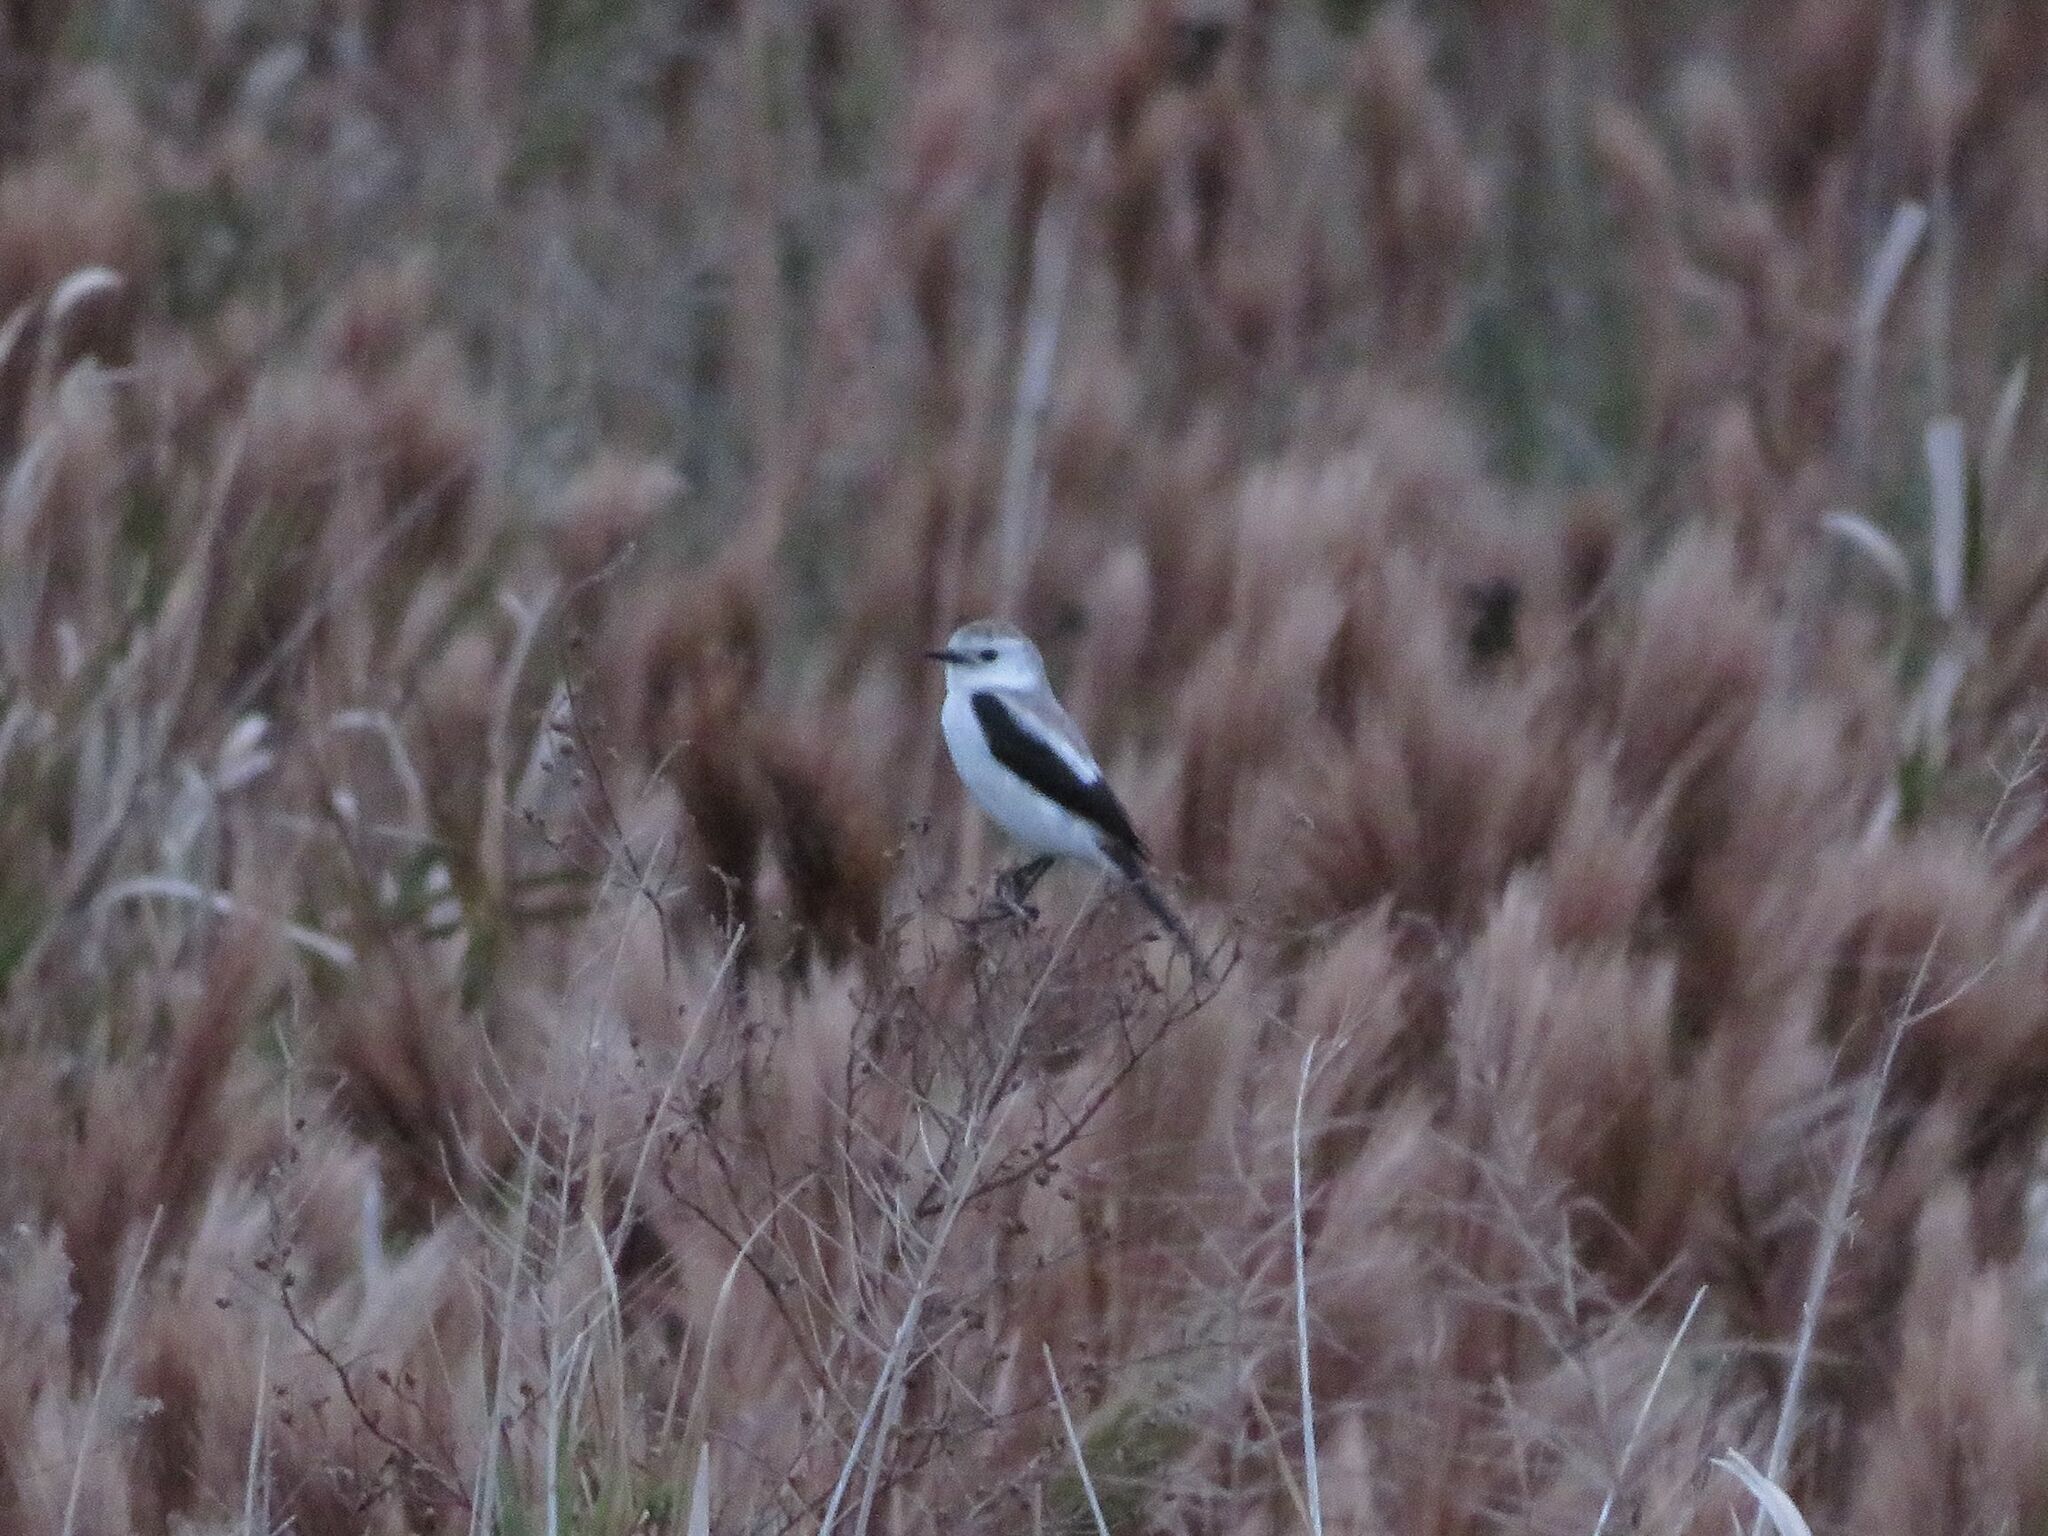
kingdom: Animalia
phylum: Chordata
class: Aves
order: Passeriformes
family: Tyrannidae
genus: Heteroxolmis
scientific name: Heteroxolmis dominicana
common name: Black-and-white monjita
